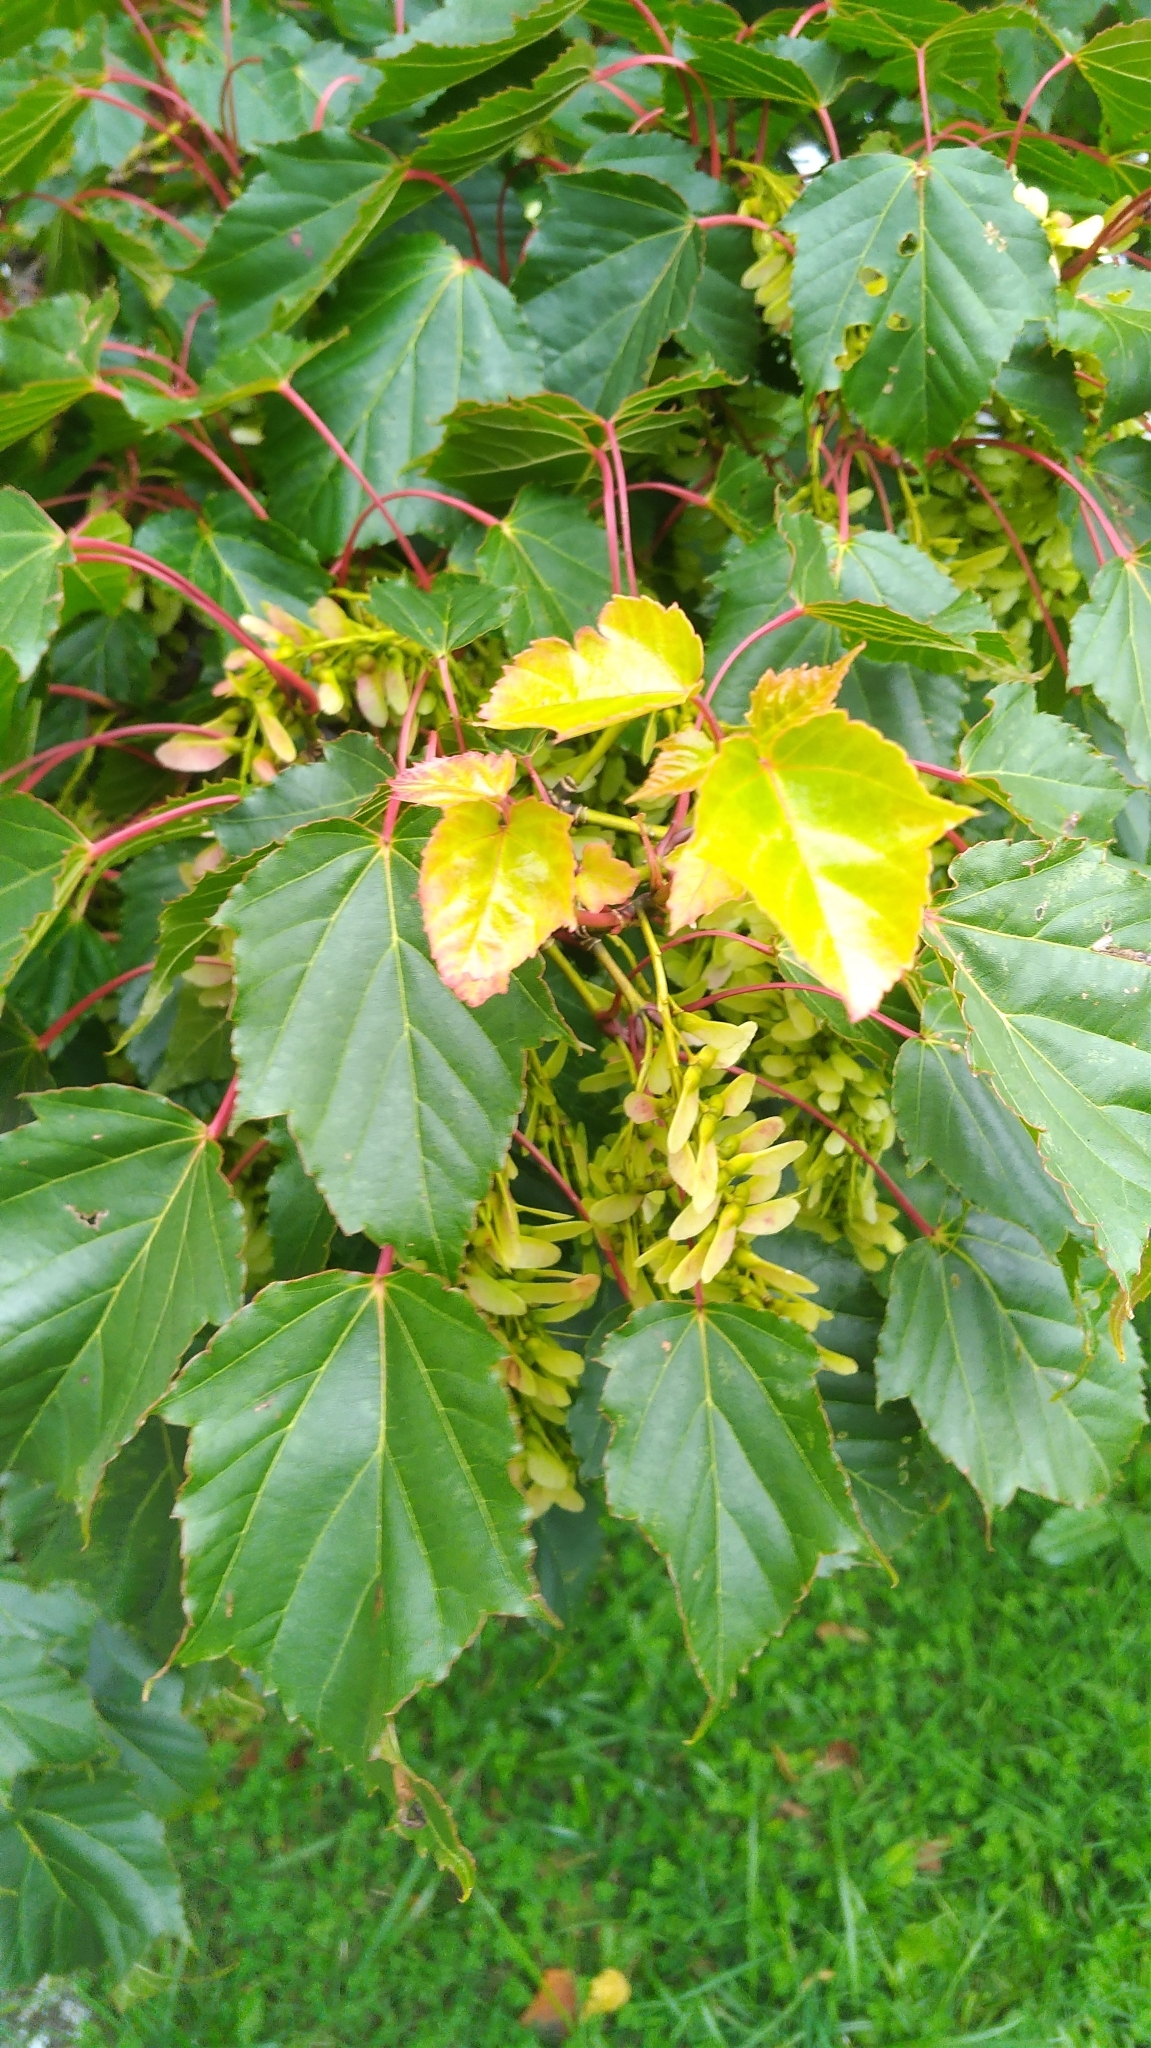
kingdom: Plantae
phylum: Tracheophyta
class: Magnoliopsida
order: Sapindales
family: Sapindaceae
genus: Acer
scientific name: Acer caudatifolium
